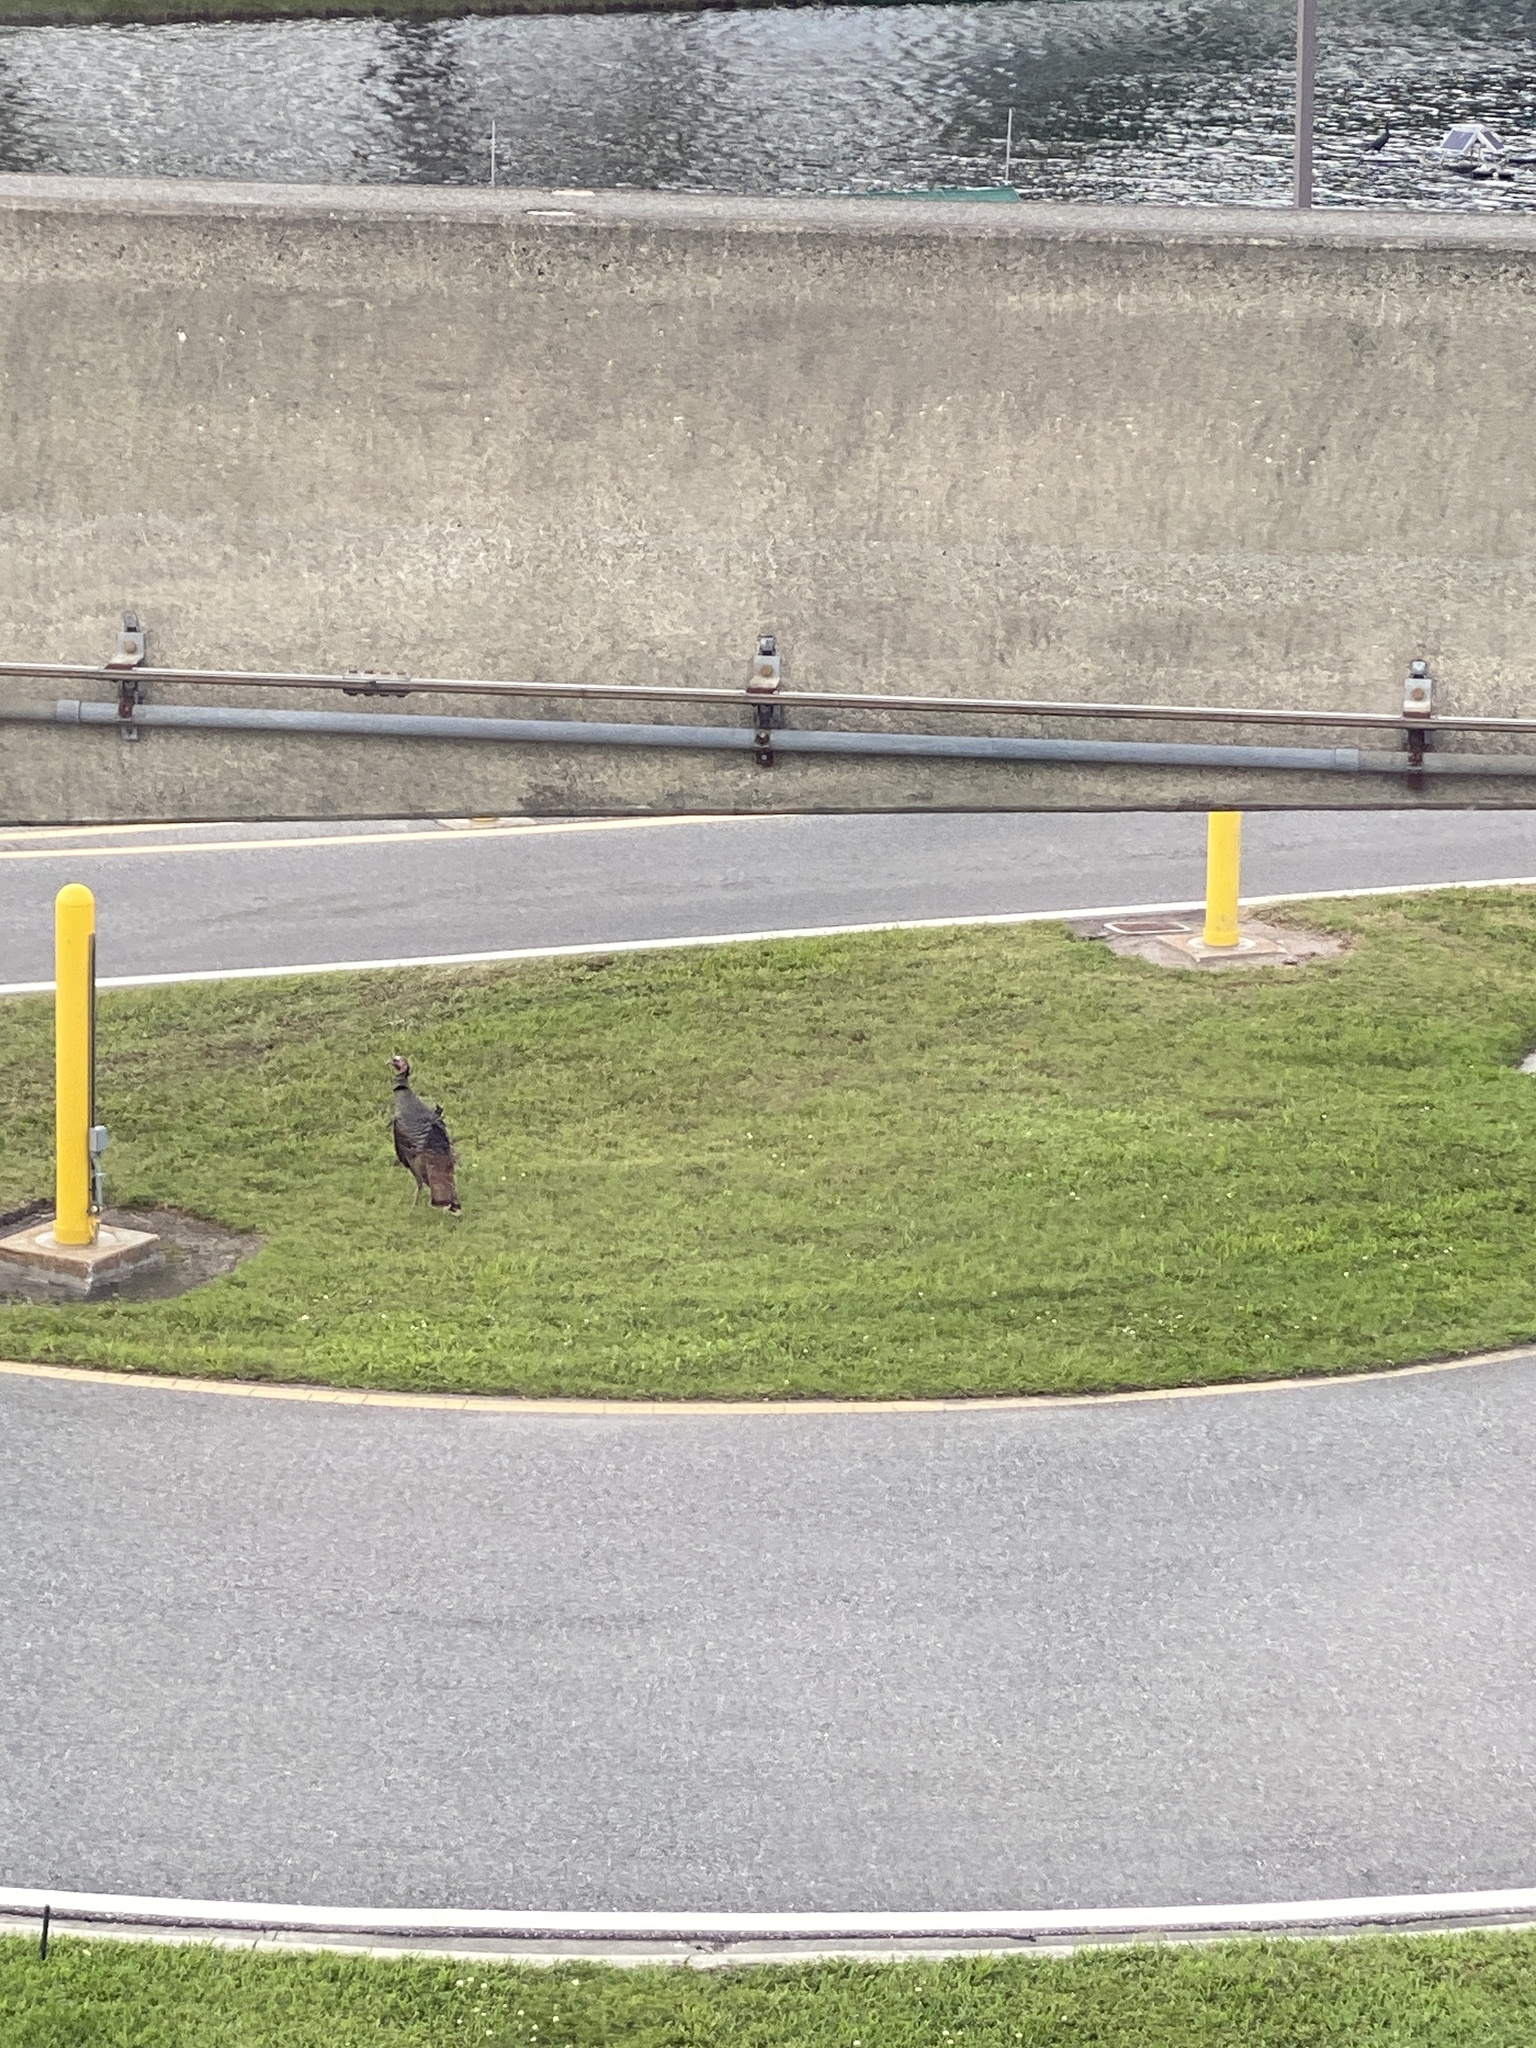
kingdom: Animalia
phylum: Chordata
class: Aves
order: Galliformes
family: Phasianidae
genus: Meleagris
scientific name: Meleagris gallopavo
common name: Wild turkey
